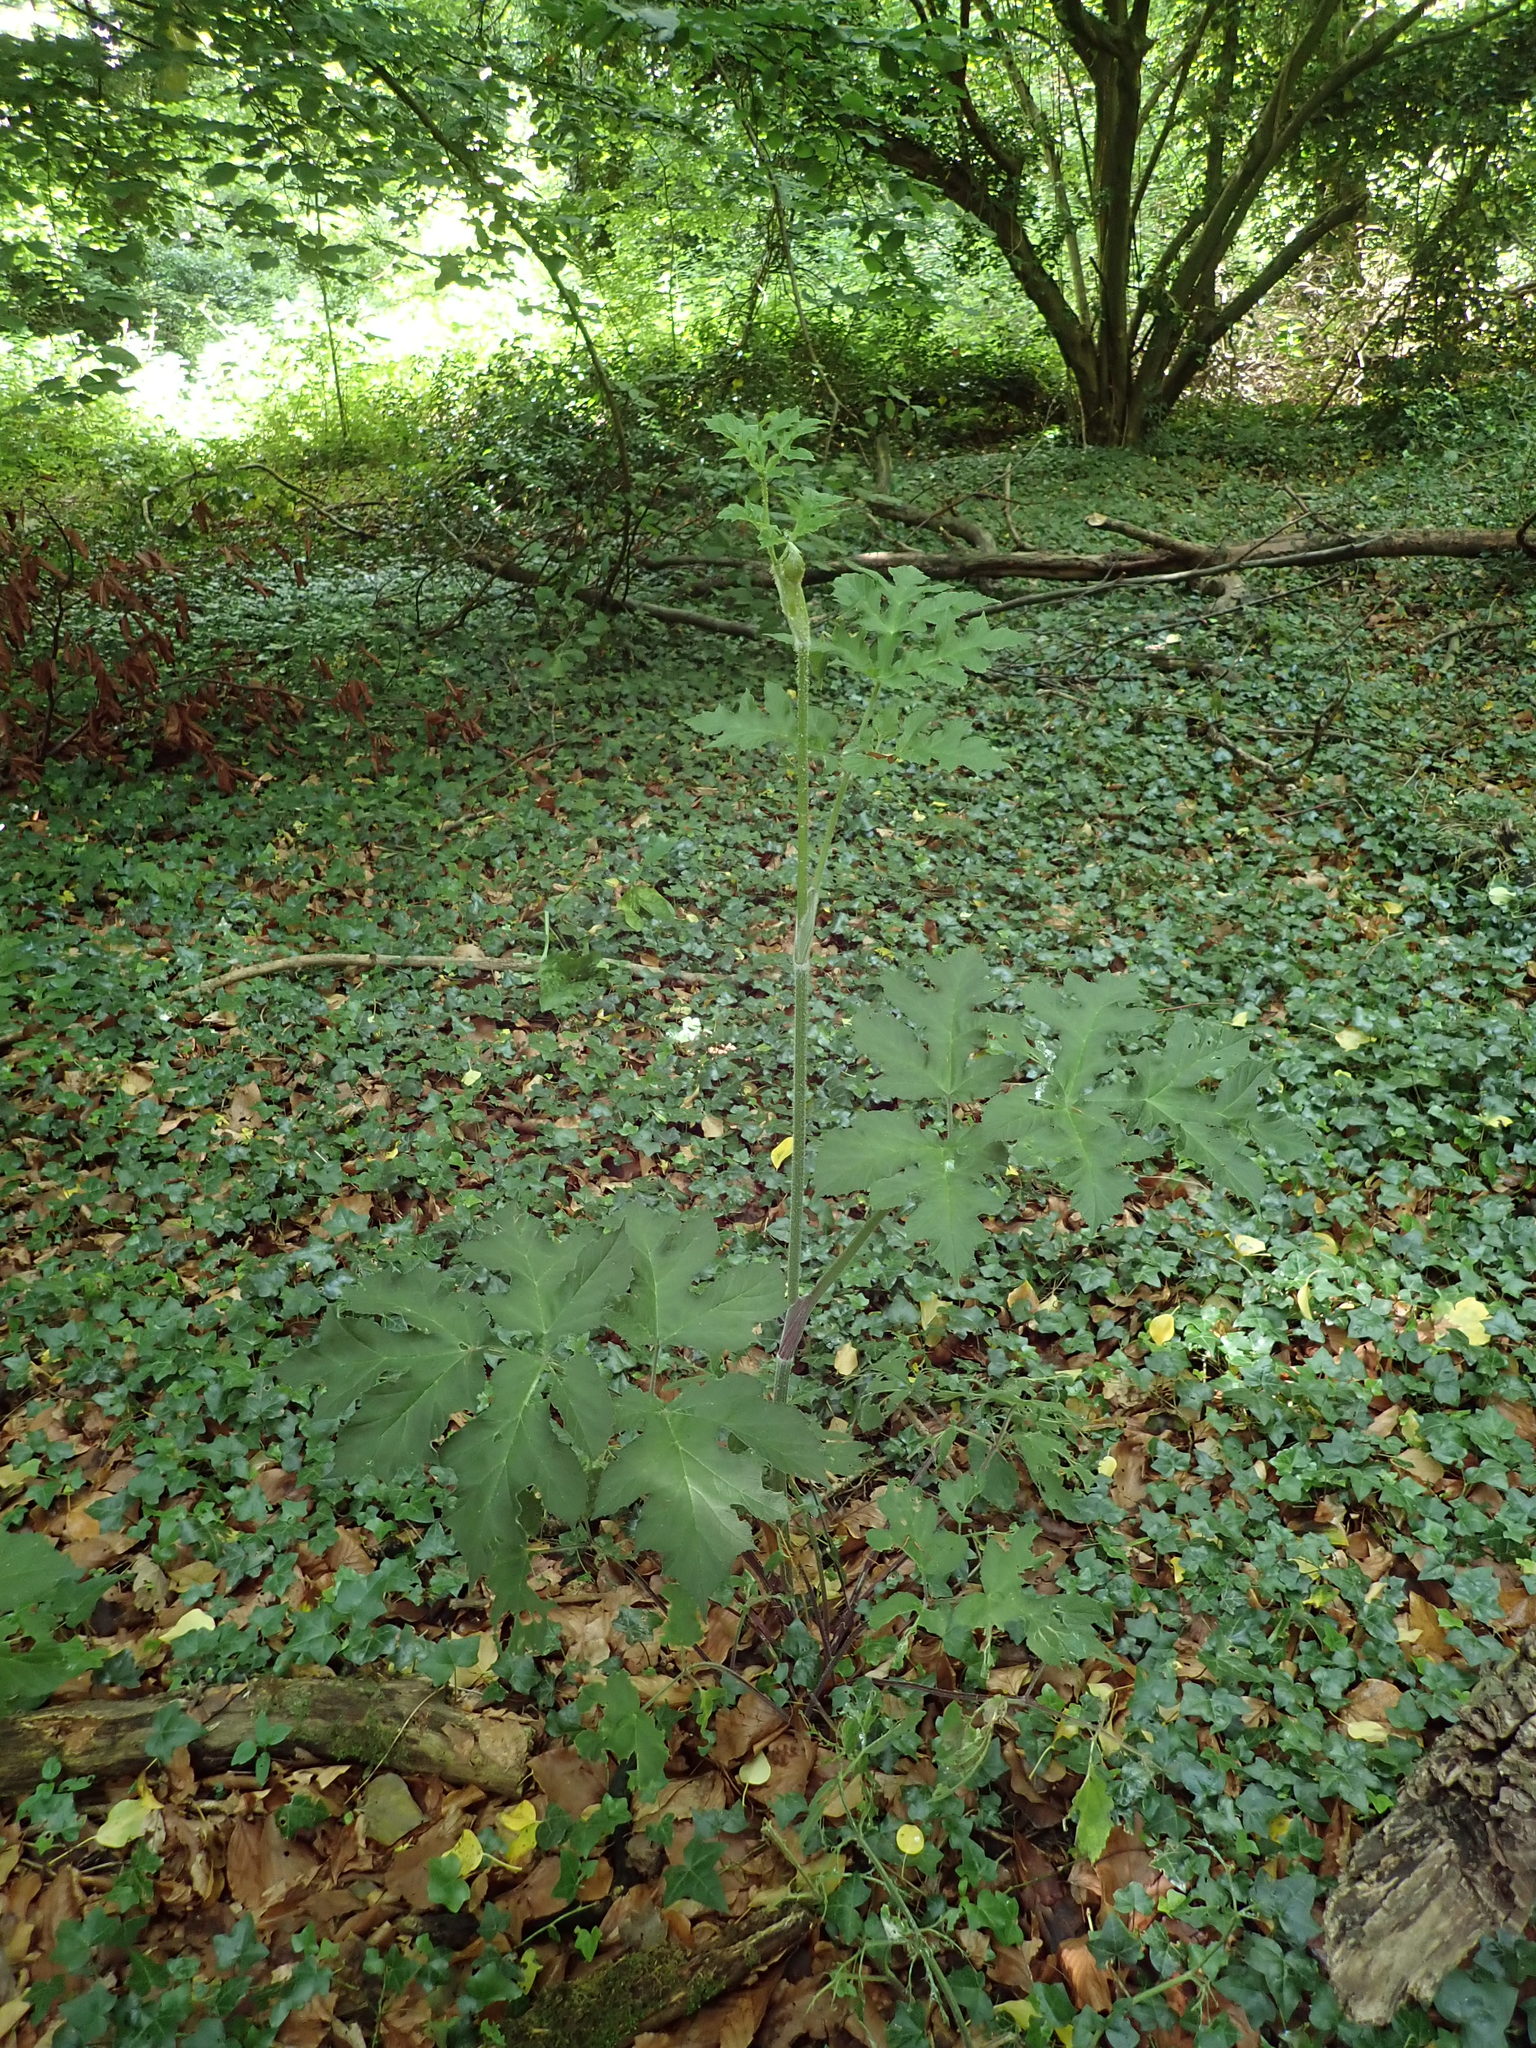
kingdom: Plantae
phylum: Tracheophyta
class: Magnoliopsida
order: Apiales
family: Apiaceae
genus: Heracleum
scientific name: Heracleum sphondylium
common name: Hogweed
